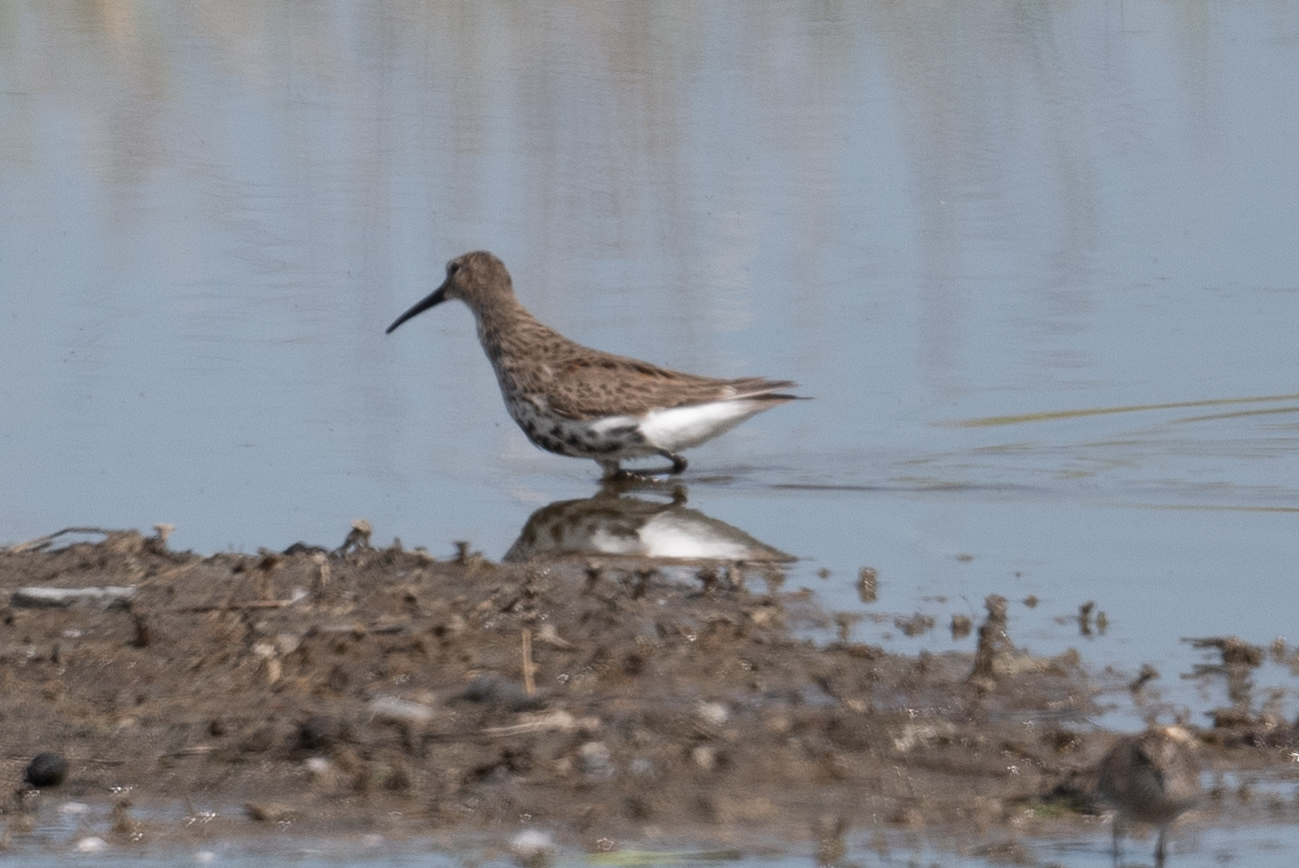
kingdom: Animalia
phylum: Chordata
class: Aves
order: Charadriiformes
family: Scolopacidae
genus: Calidris
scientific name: Calidris alpina
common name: Dunlin
